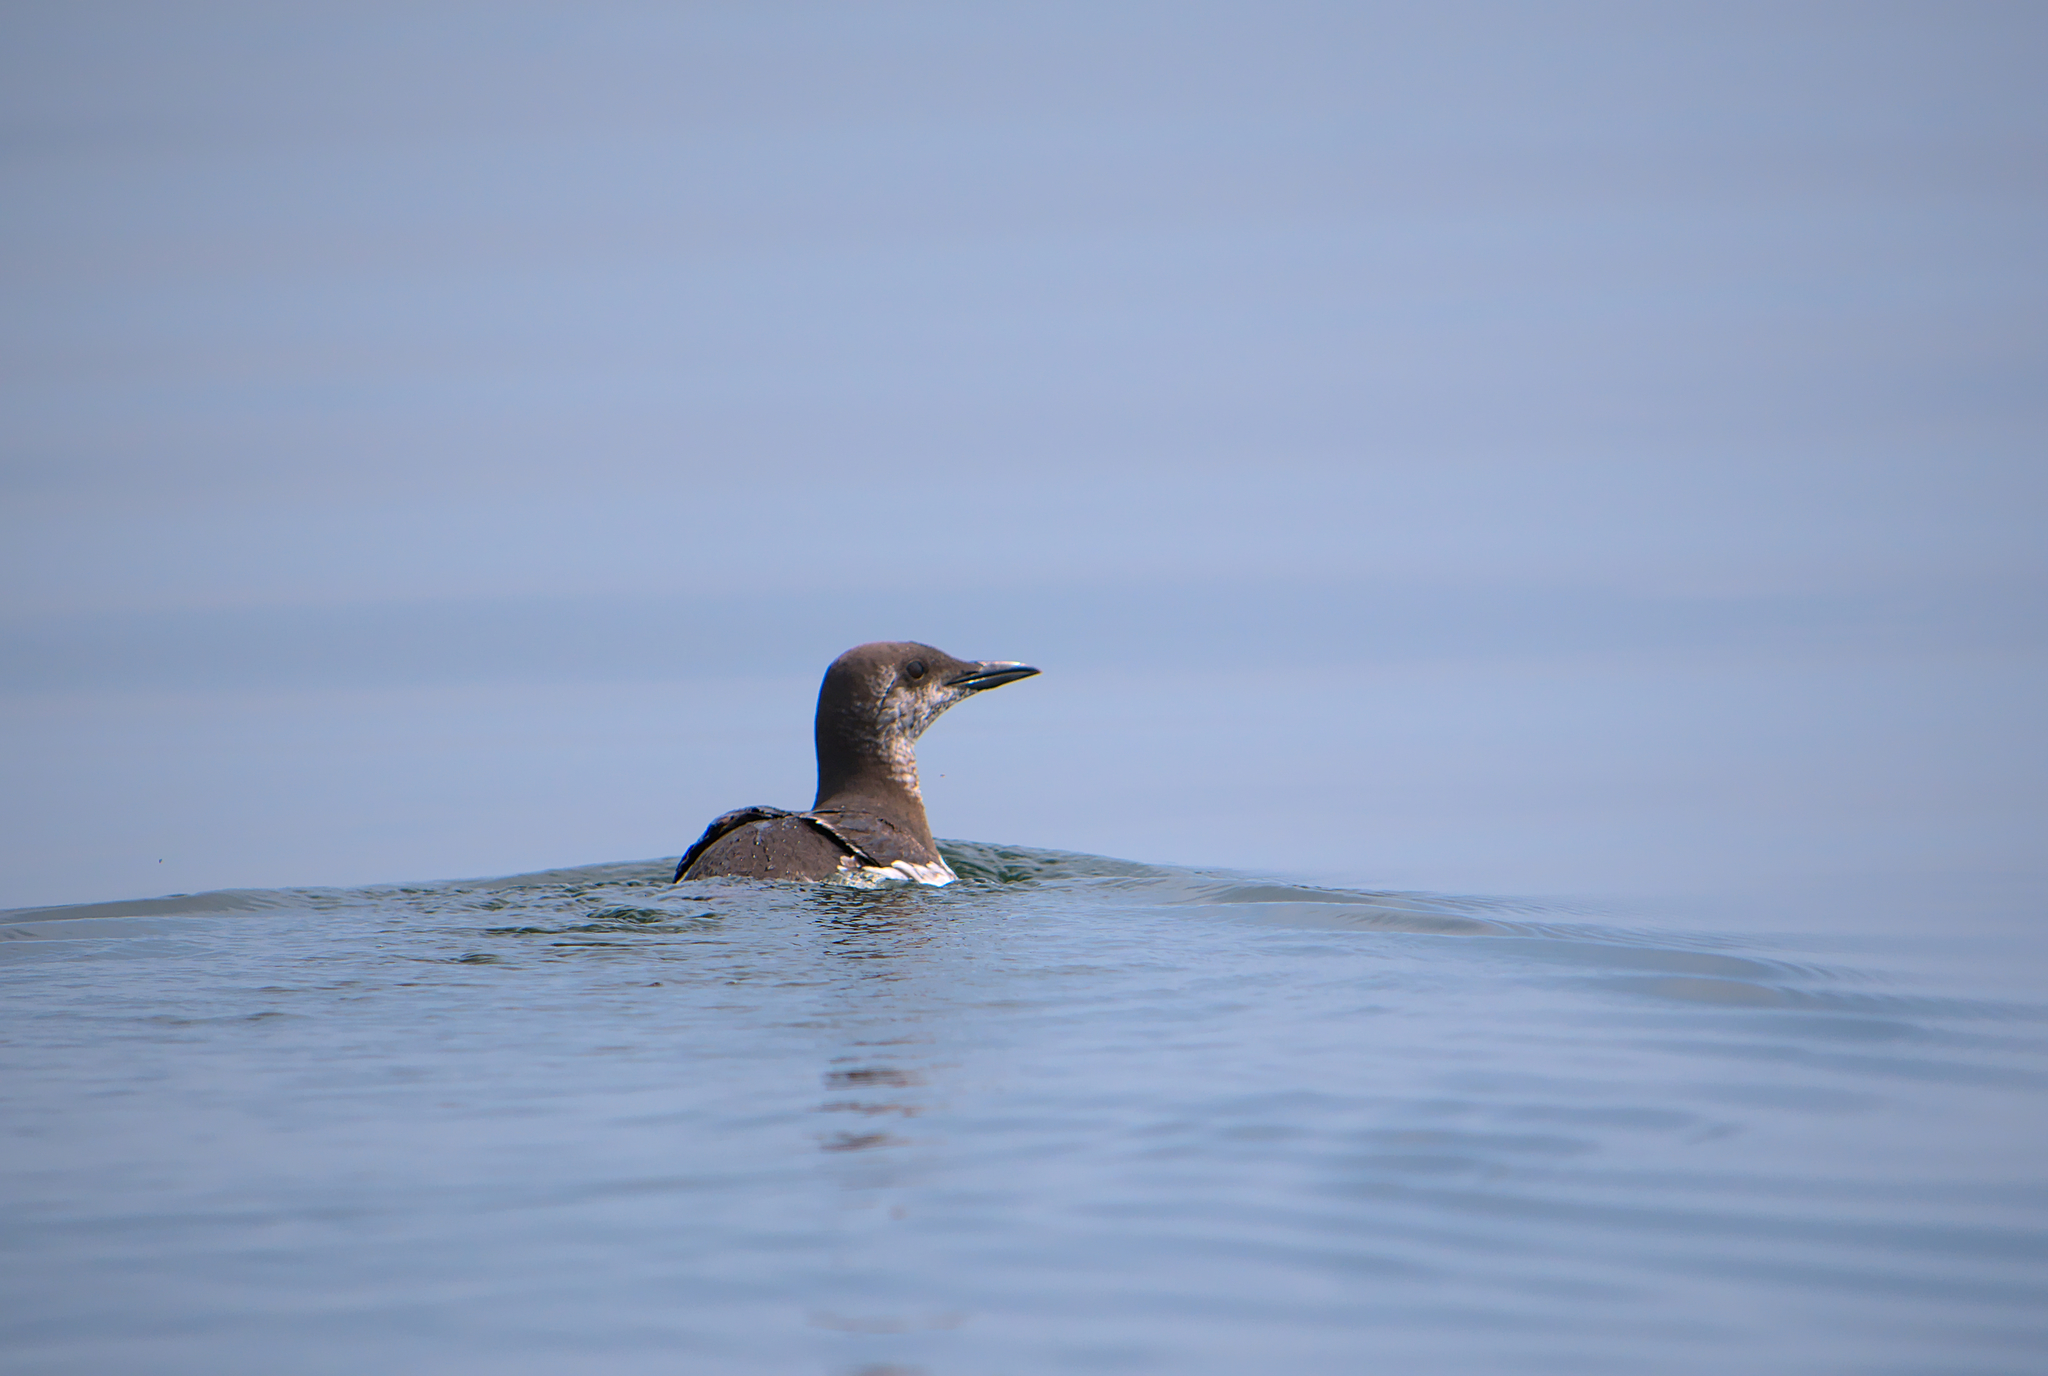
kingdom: Animalia
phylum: Chordata
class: Aves
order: Charadriiformes
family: Alcidae
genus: Uria
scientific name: Uria aalge
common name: Common murre
